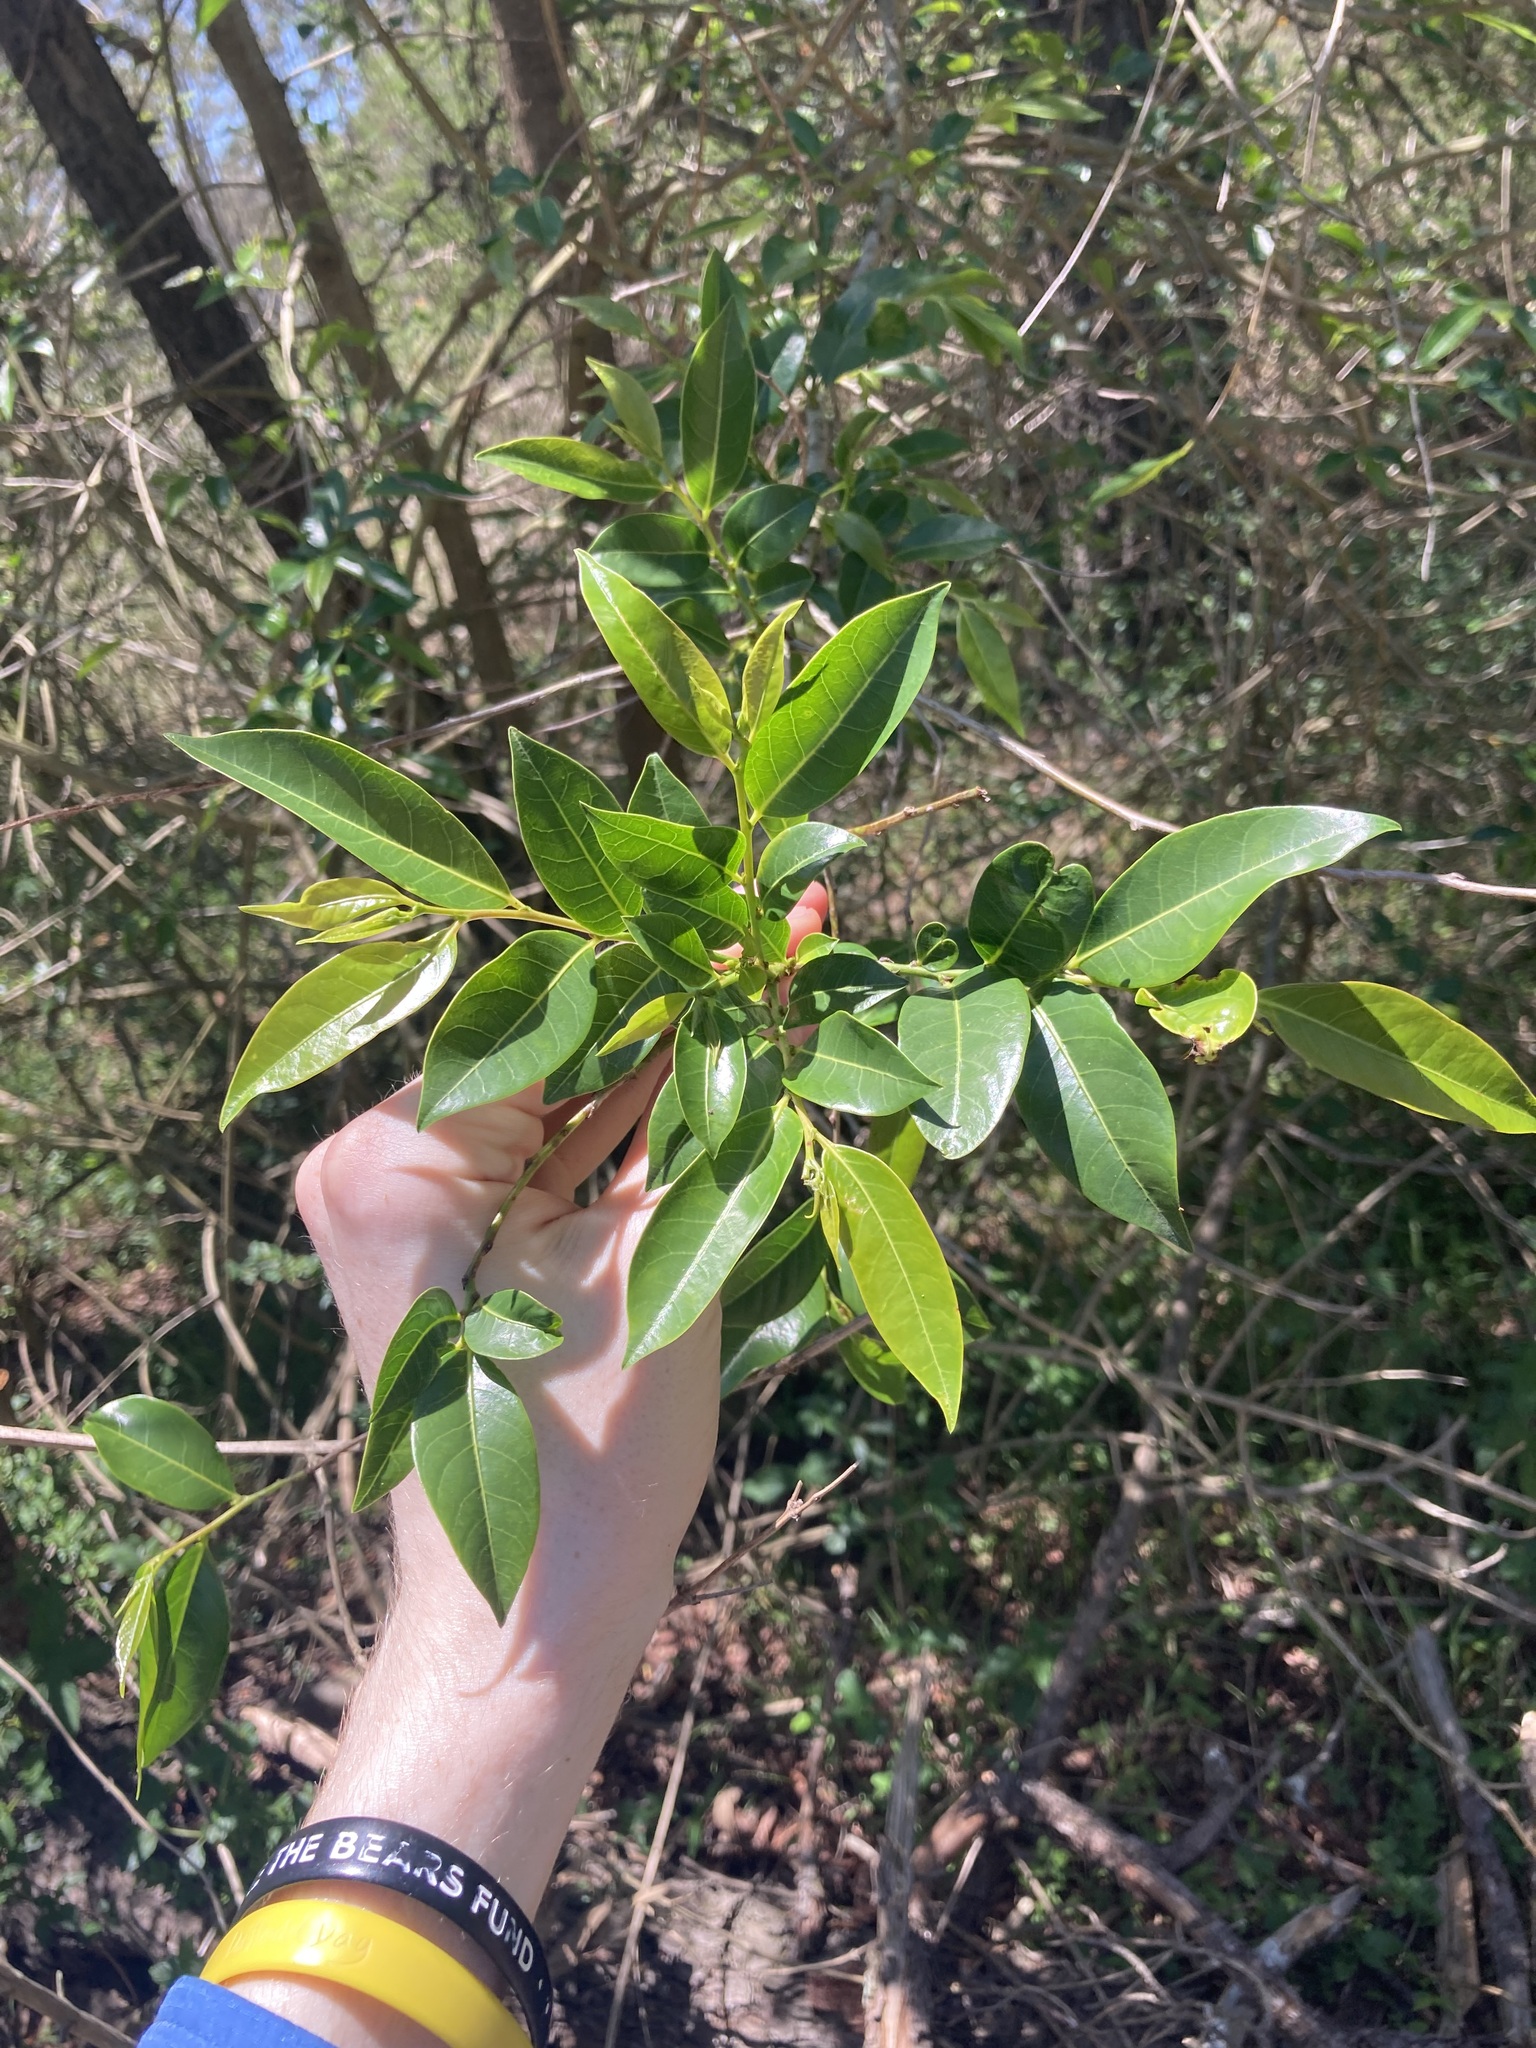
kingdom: Plantae
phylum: Tracheophyta
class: Magnoliopsida
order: Malpighiales
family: Phyllanthaceae
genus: Glochidion
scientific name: Glochidion ferdinandi
